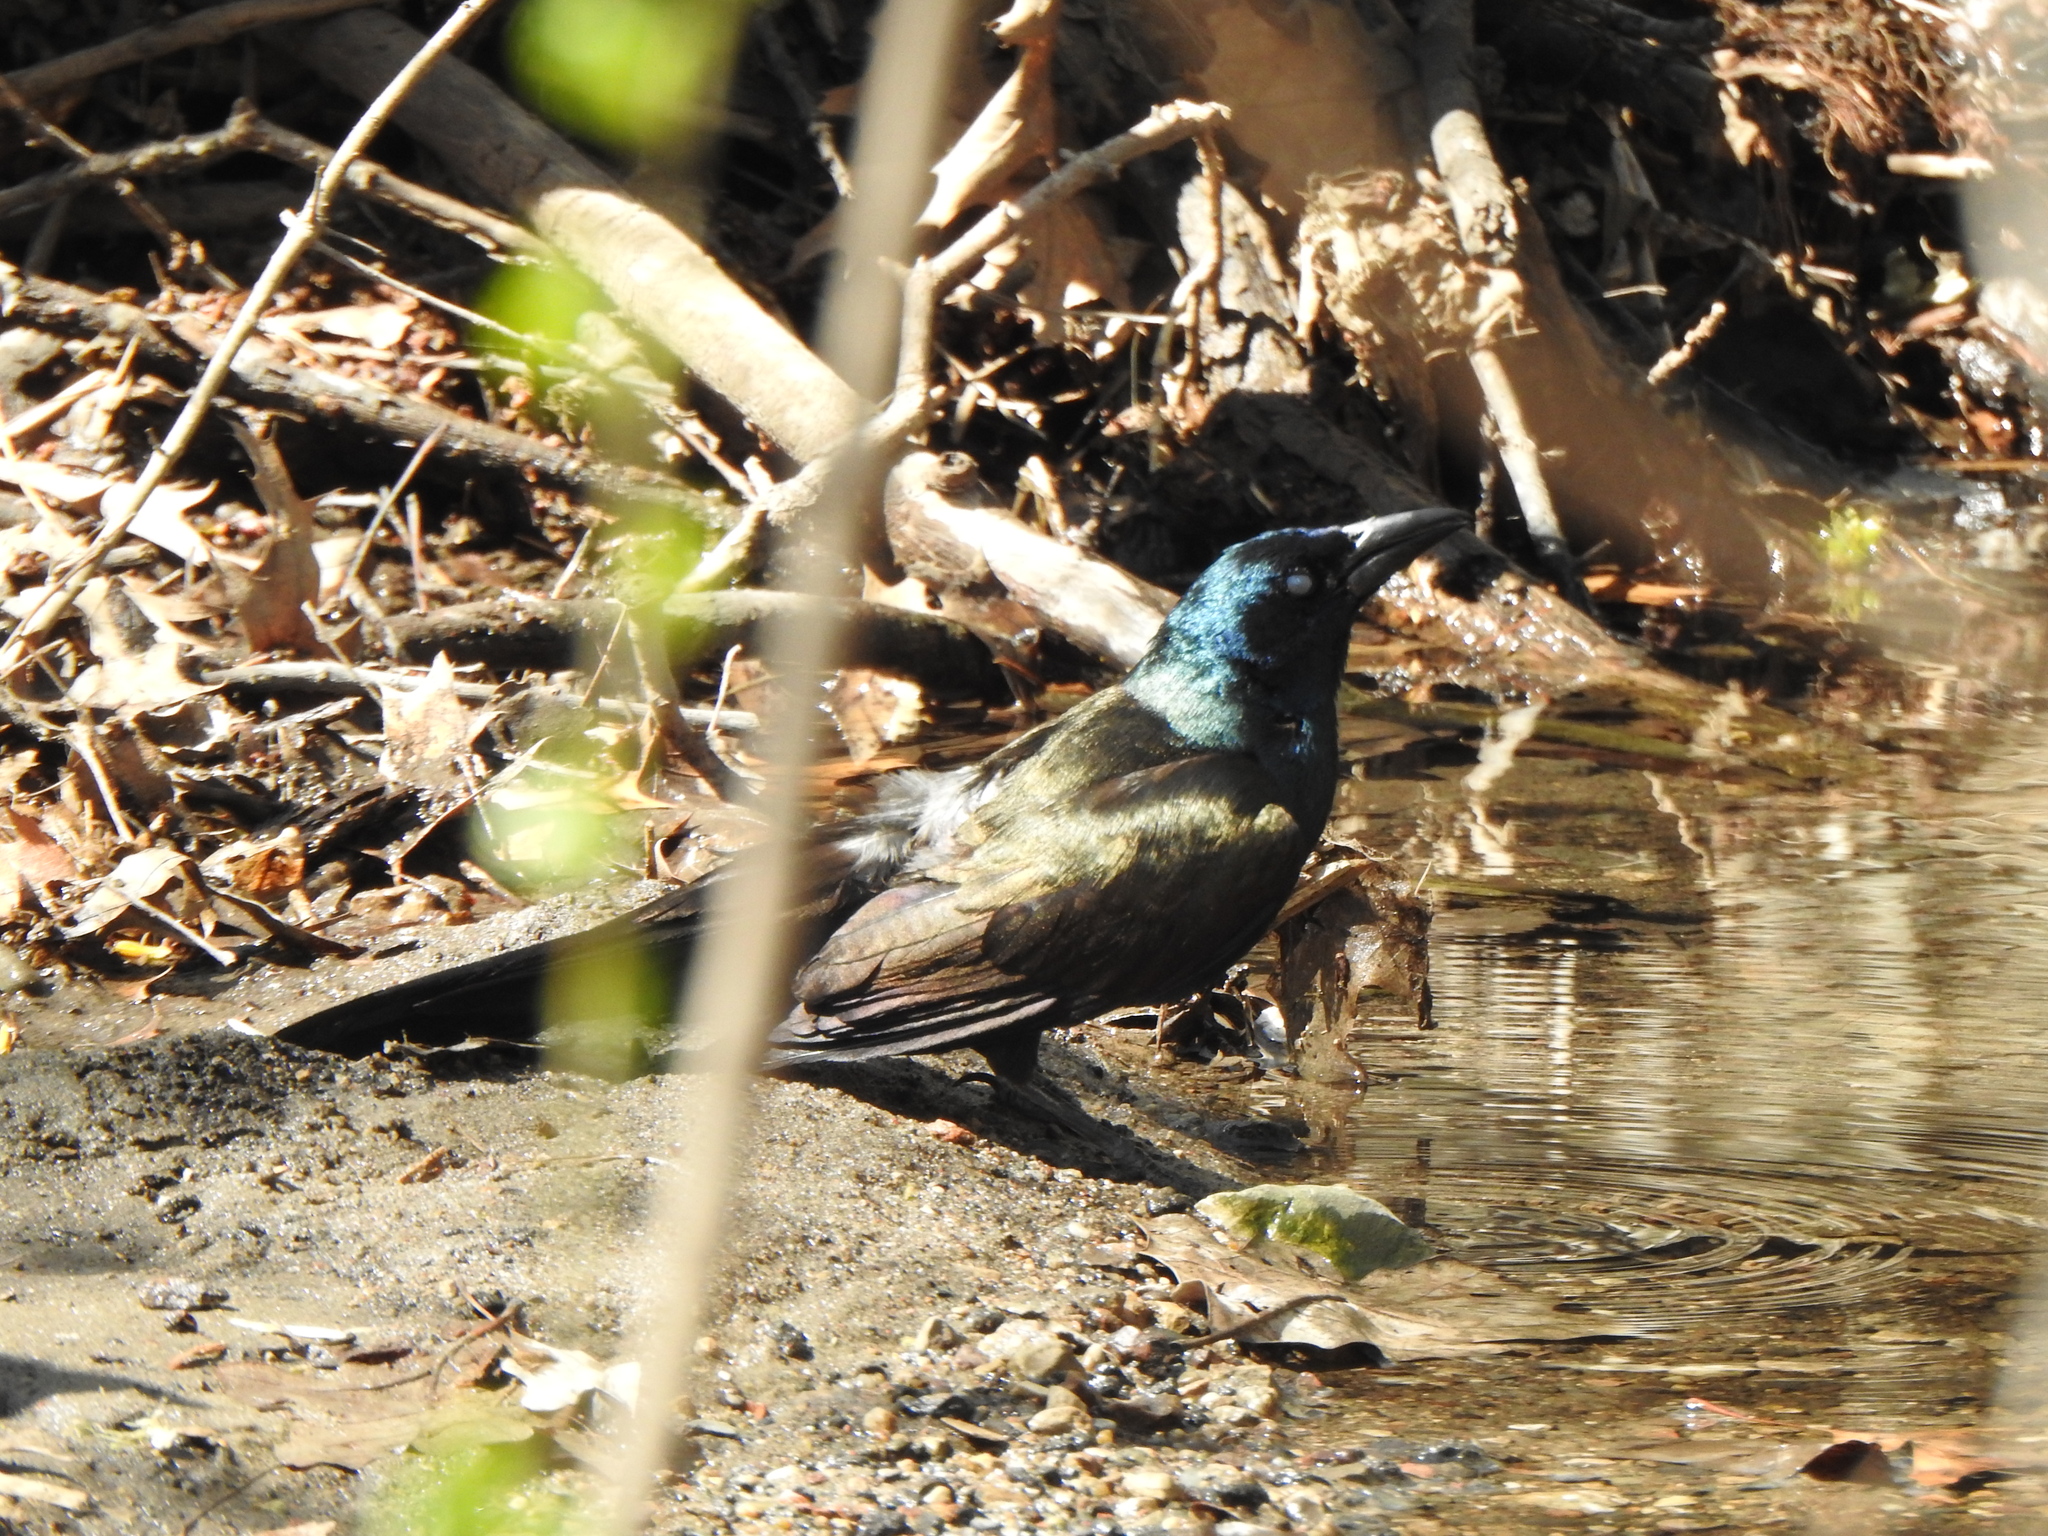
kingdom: Animalia
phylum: Chordata
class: Aves
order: Passeriformes
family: Icteridae
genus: Quiscalus
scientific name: Quiscalus quiscula
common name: Common grackle
